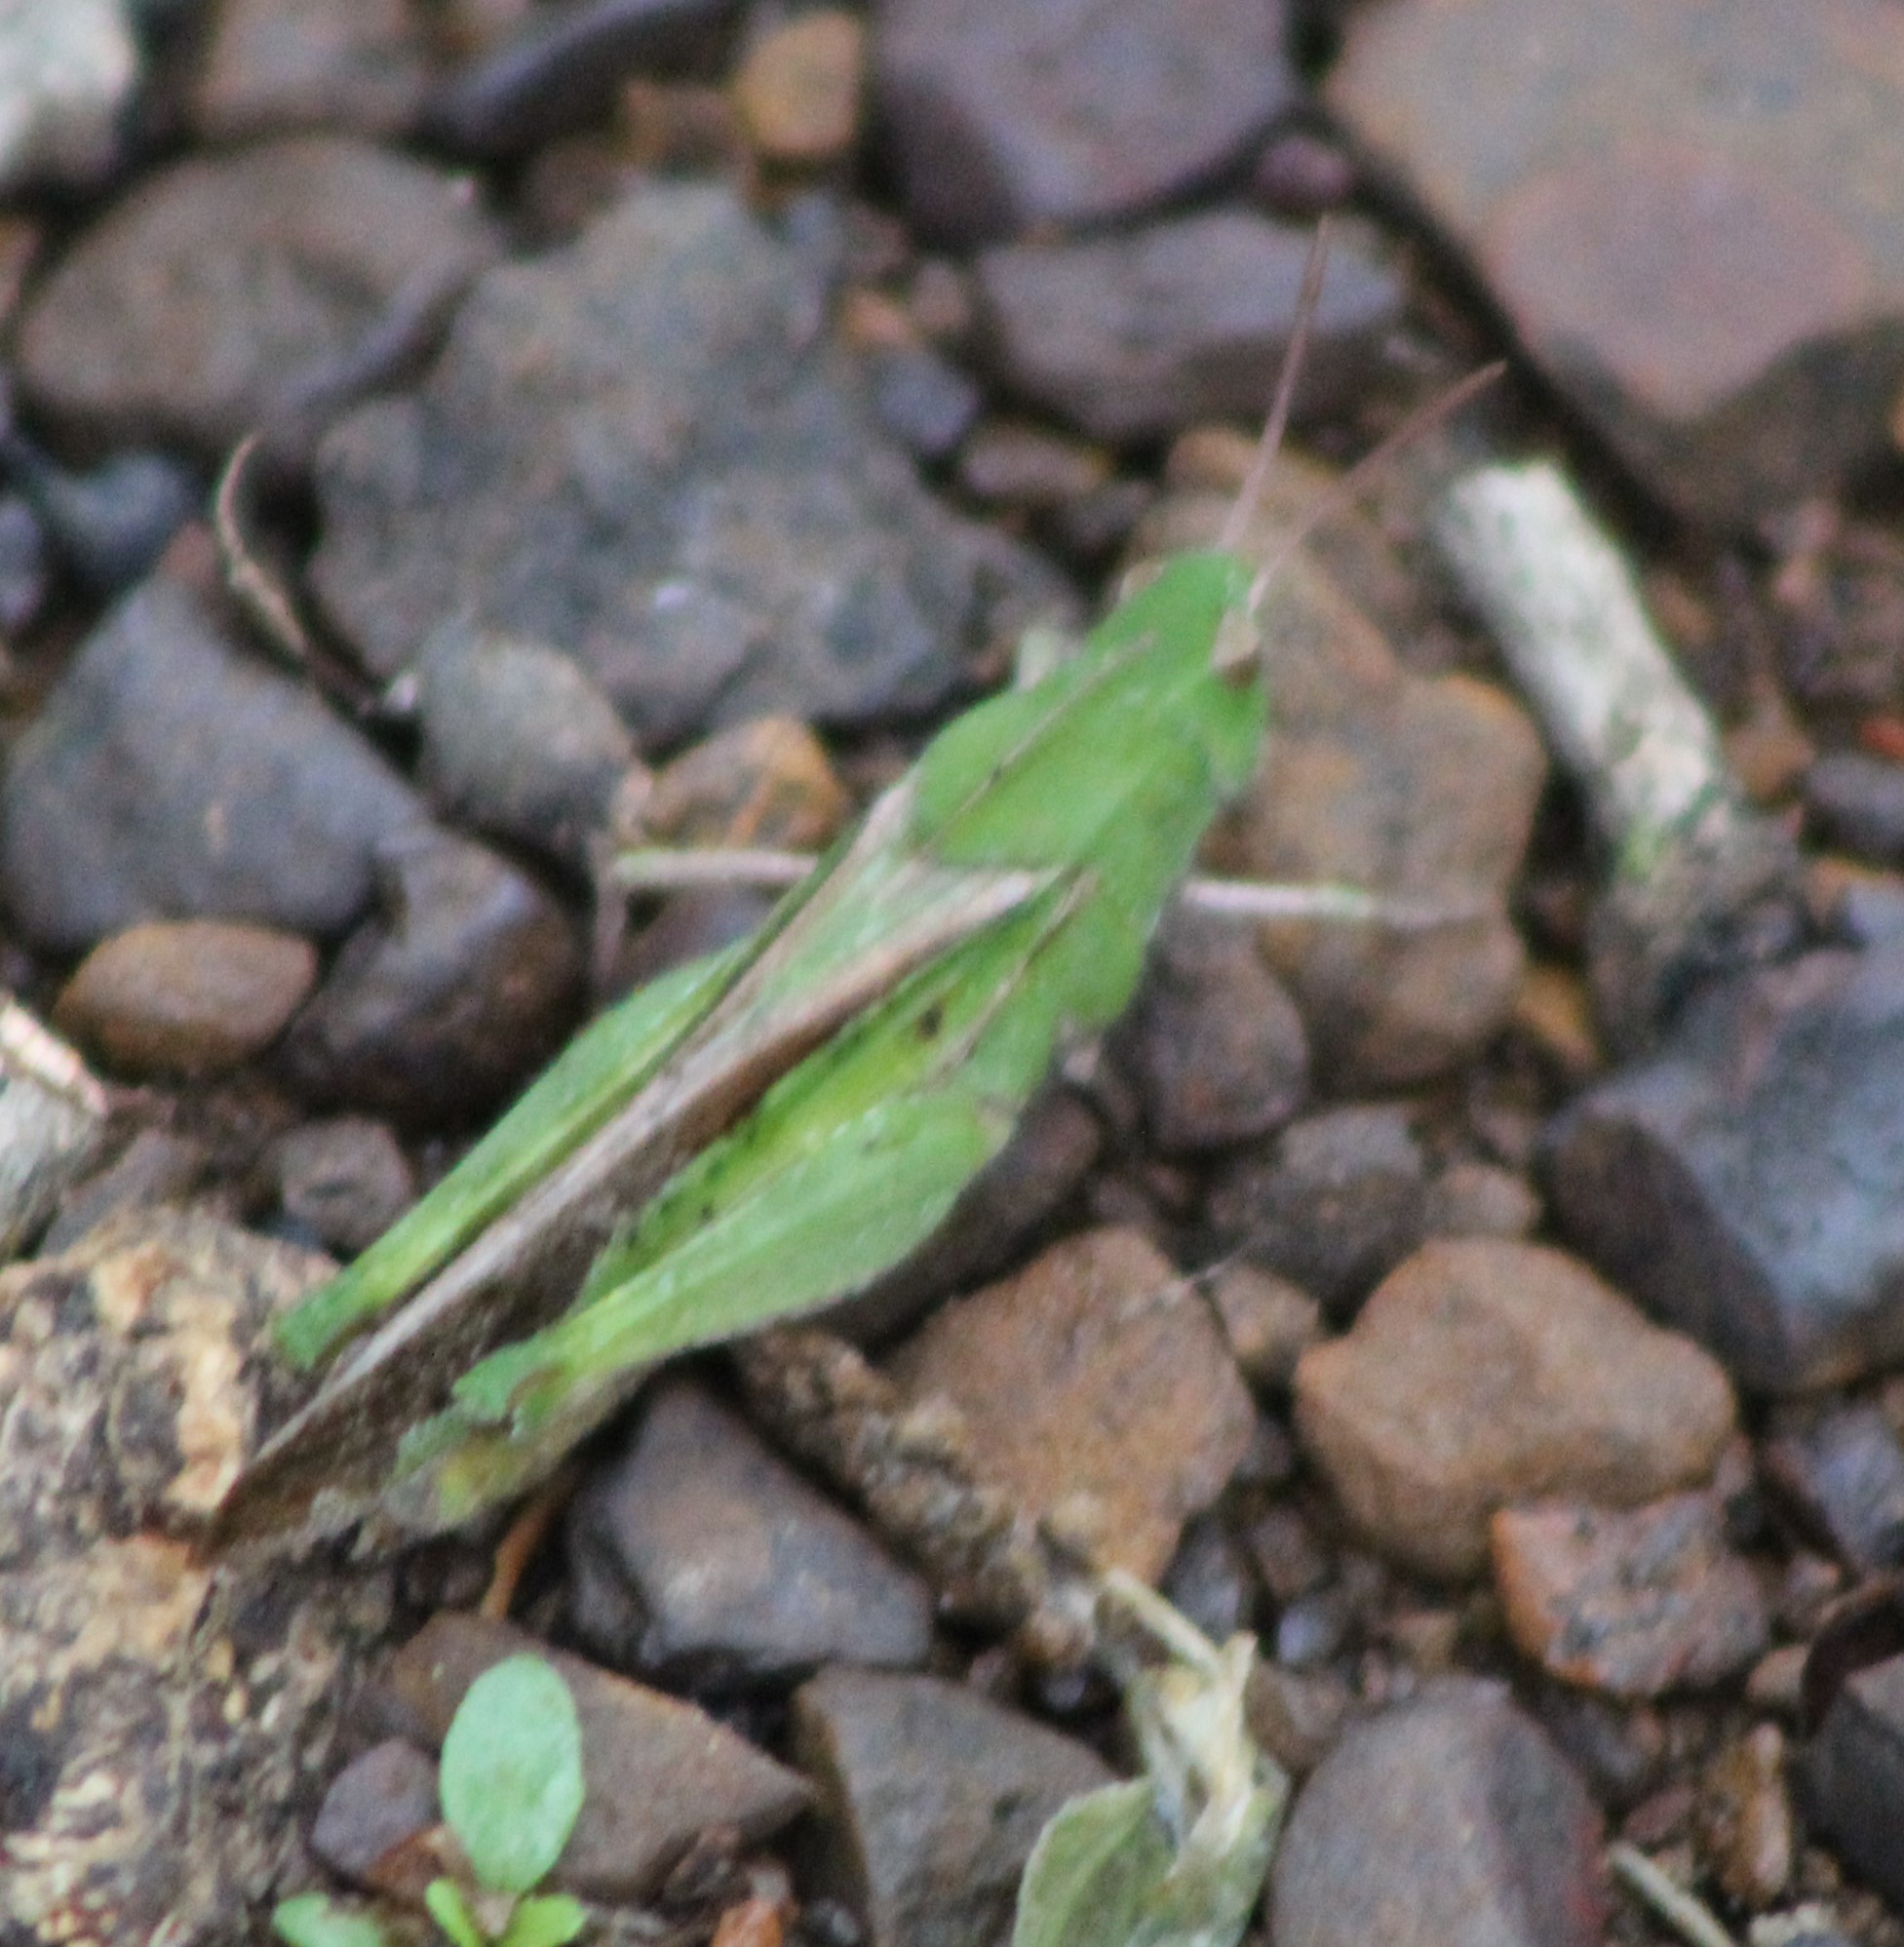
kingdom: Animalia
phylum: Arthropoda
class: Insecta
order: Orthoptera
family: Acrididae
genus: Chortophaga
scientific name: Chortophaga viridifasciata
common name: Green-striped grasshopper
